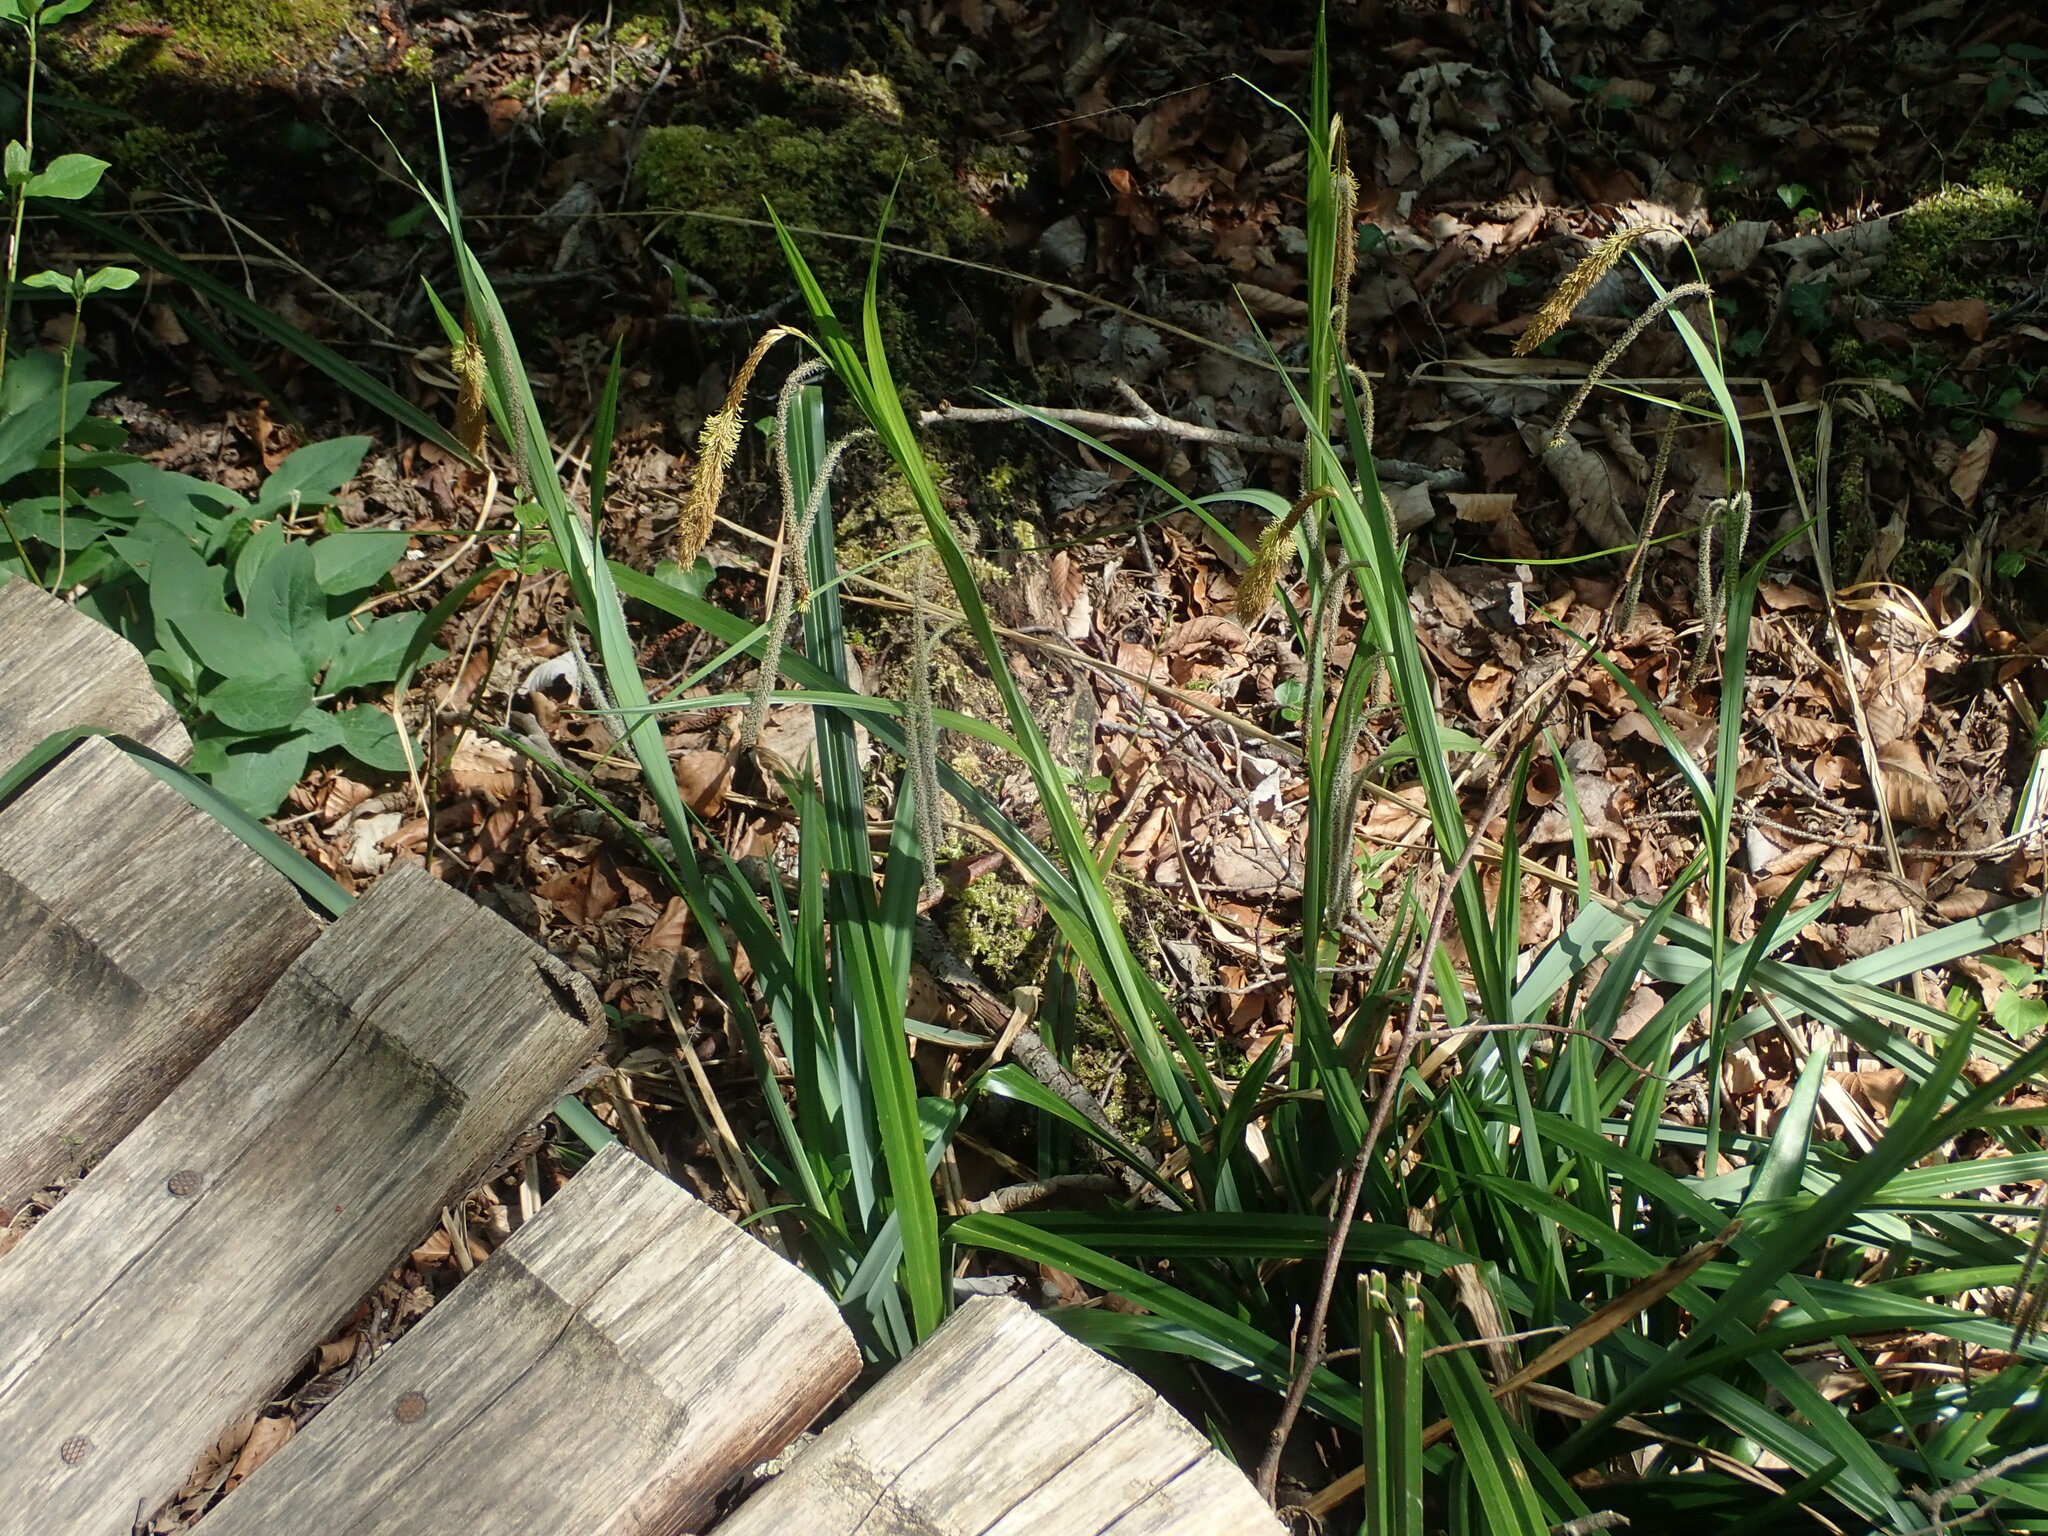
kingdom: Plantae
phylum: Tracheophyta
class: Liliopsida
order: Poales
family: Cyperaceae
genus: Carex
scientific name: Carex pendula
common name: Pendulous sedge
